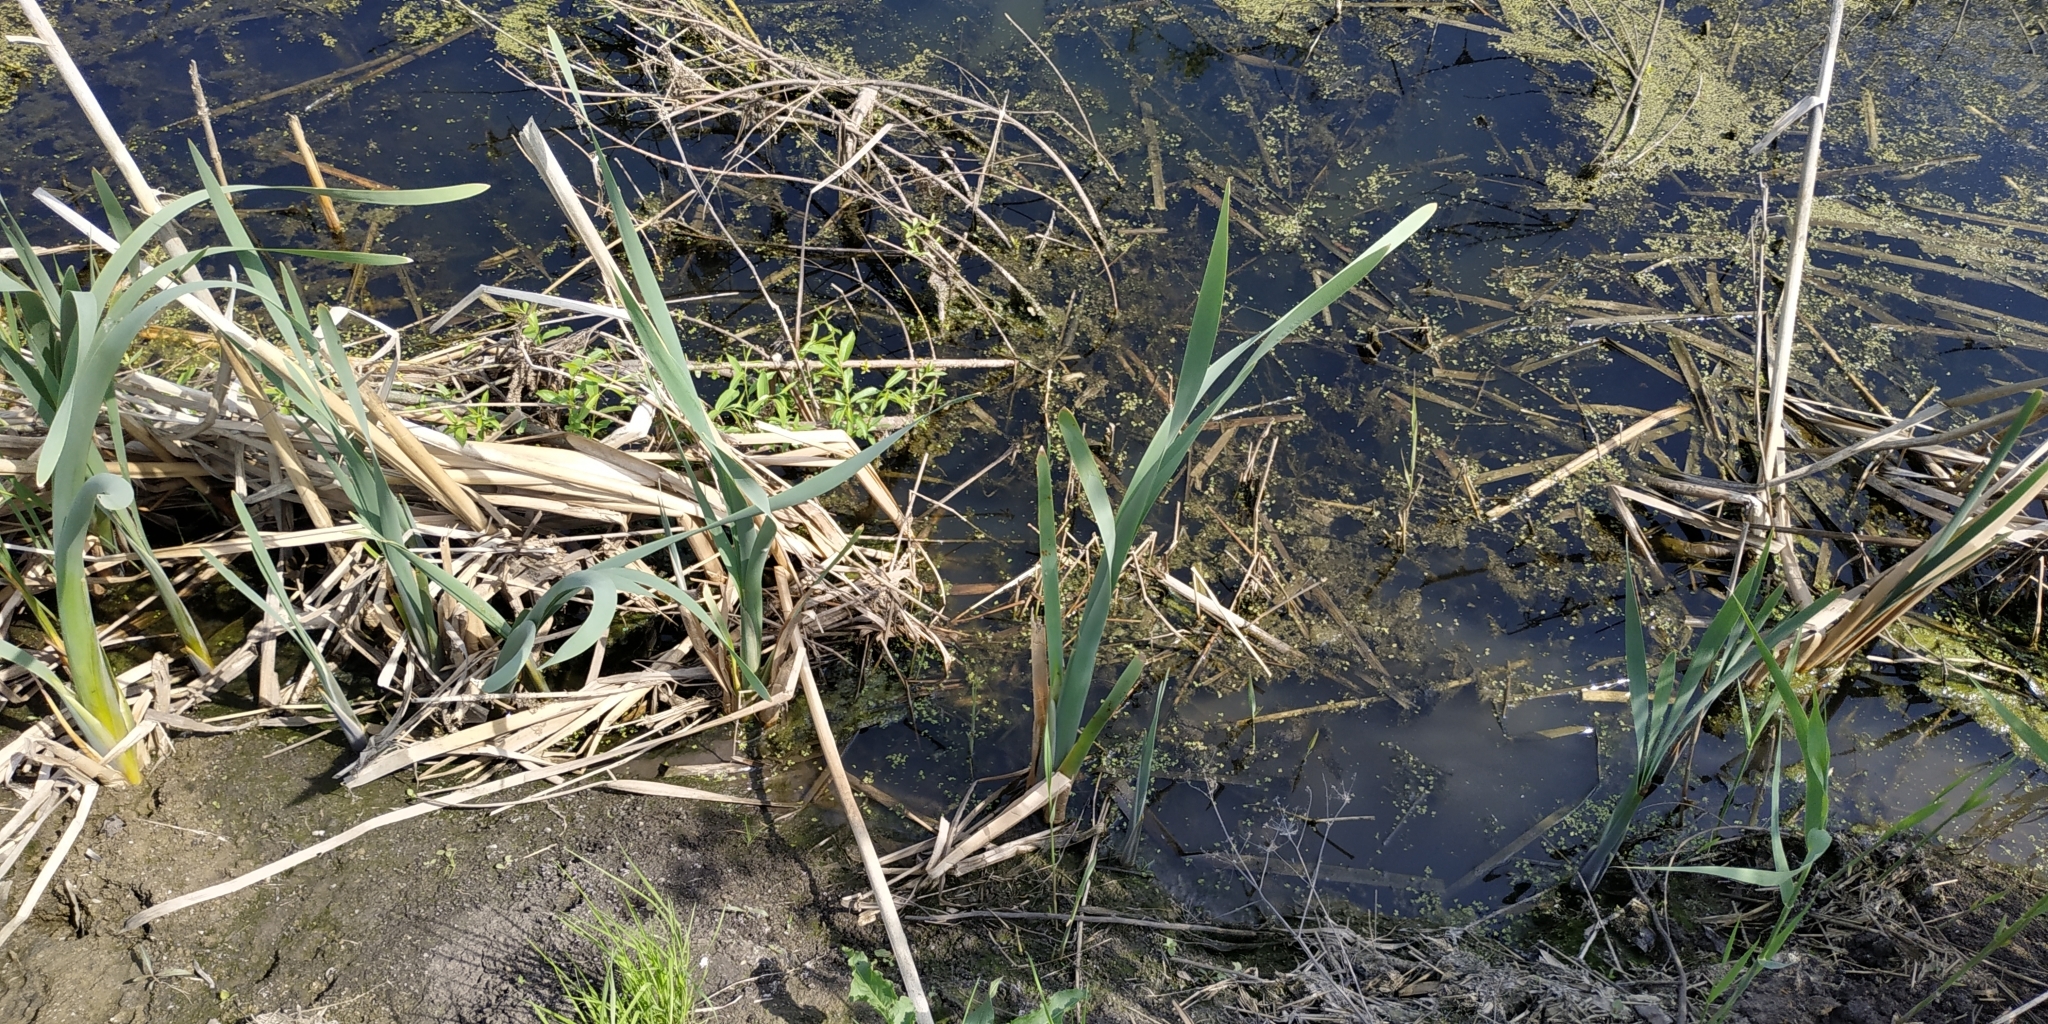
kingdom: Plantae
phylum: Tracheophyta
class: Liliopsida
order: Poales
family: Typhaceae
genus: Typha
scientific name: Typha latifolia
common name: Broadleaf cattail
